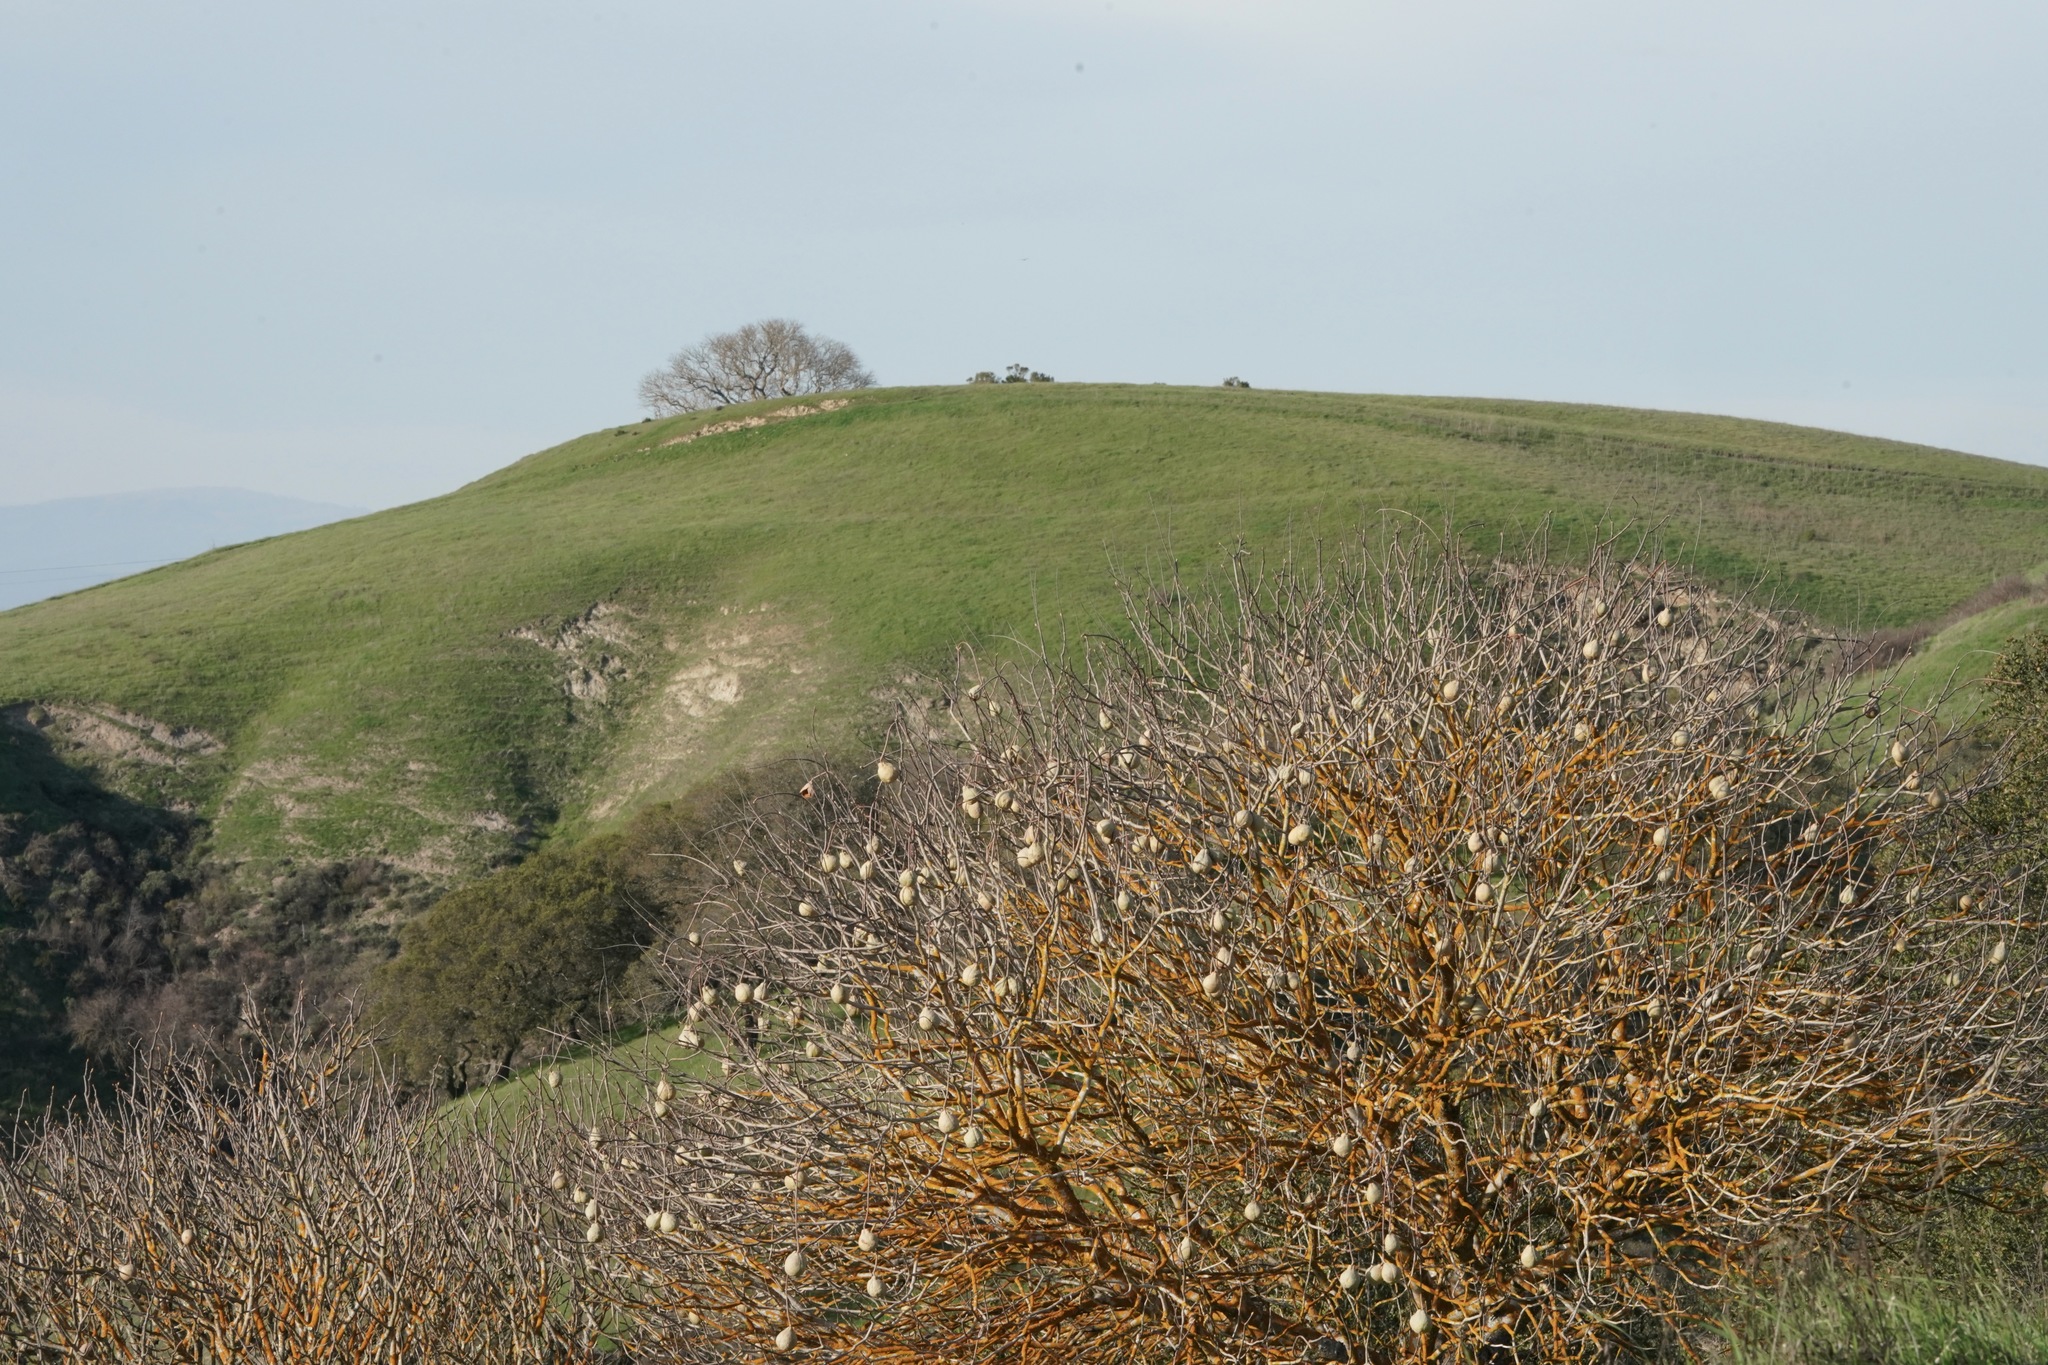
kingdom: Plantae
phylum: Tracheophyta
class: Magnoliopsida
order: Sapindales
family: Sapindaceae
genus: Aesculus
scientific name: Aesculus californica
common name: California buckeye
